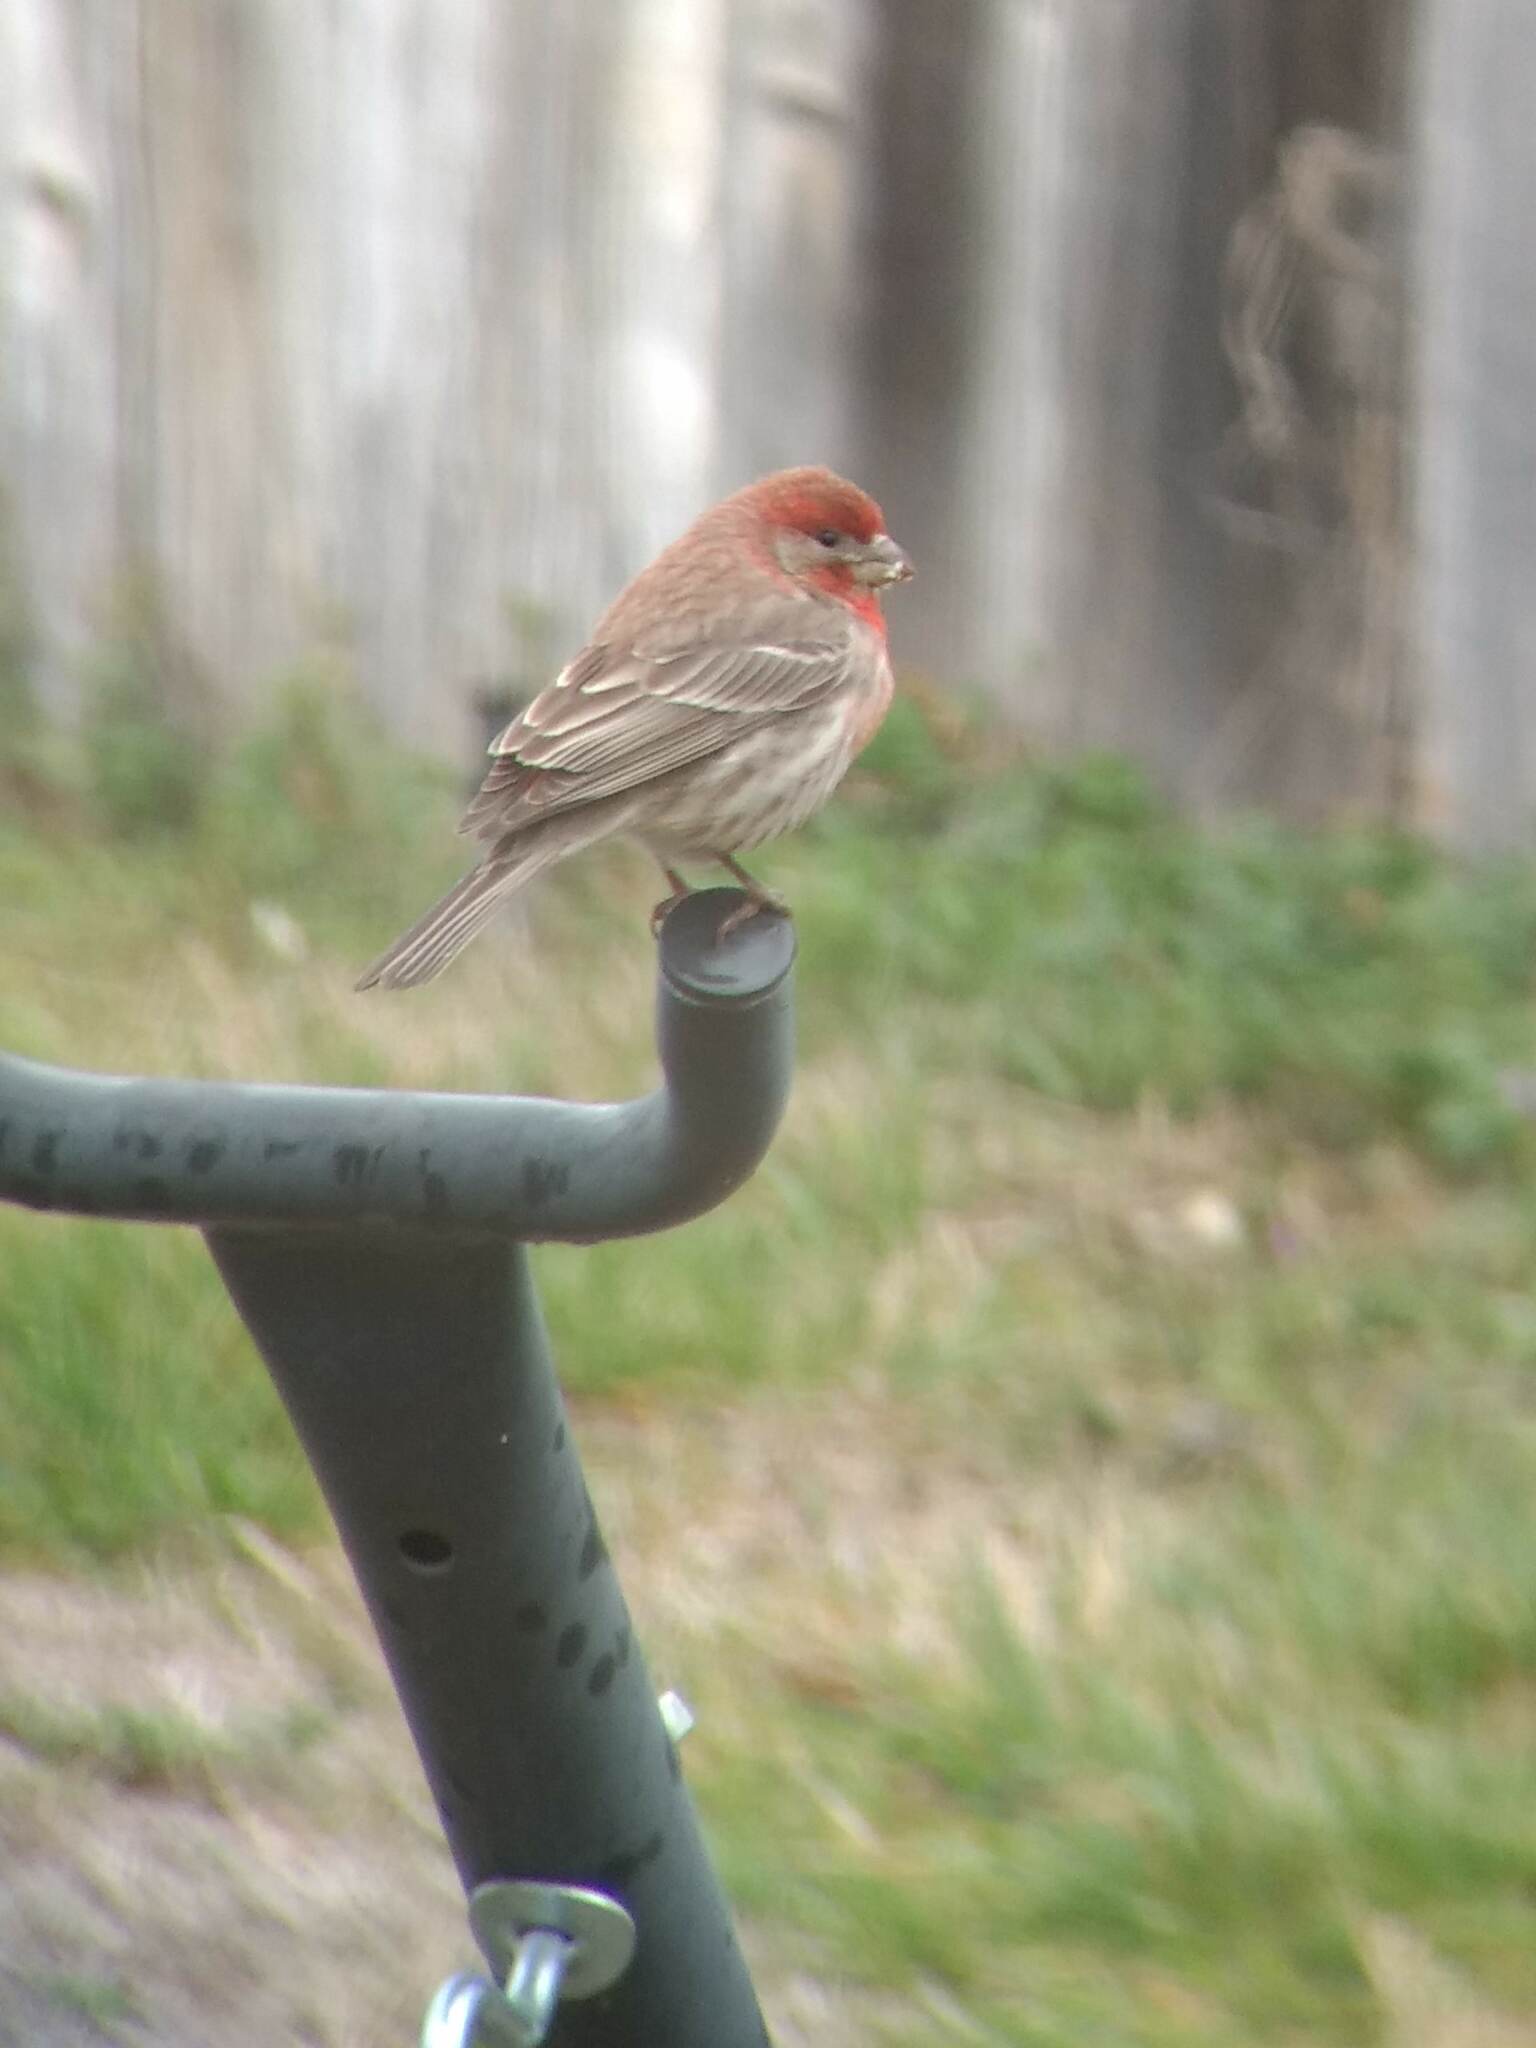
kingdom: Animalia
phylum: Chordata
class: Aves
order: Passeriformes
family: Fringillidae
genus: Haemorhous
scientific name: Haemorhous mexicanus
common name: House finch
